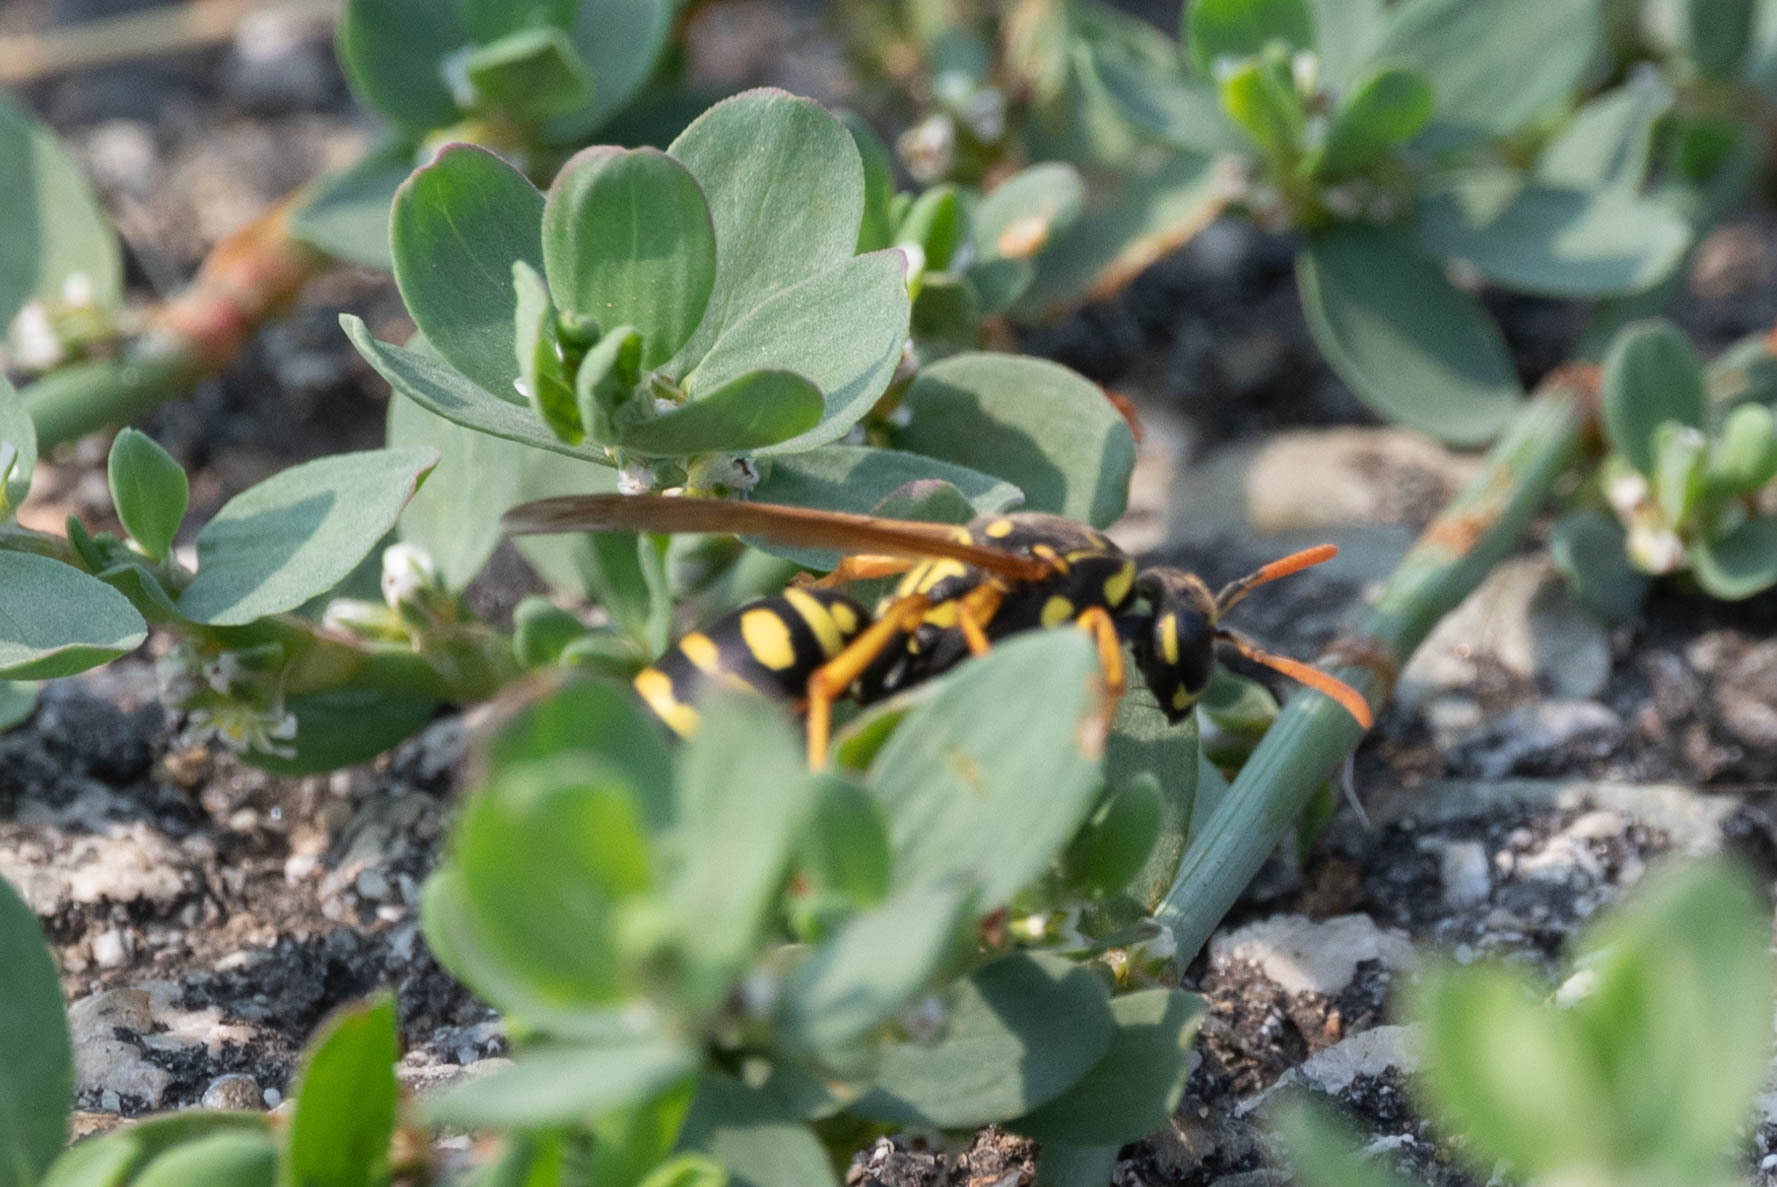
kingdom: Animalia
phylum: Arthropoda
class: Insecta
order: Hymenoptera
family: Eumenidae
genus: Polistes
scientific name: Polistes dominula
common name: Paper wasp
